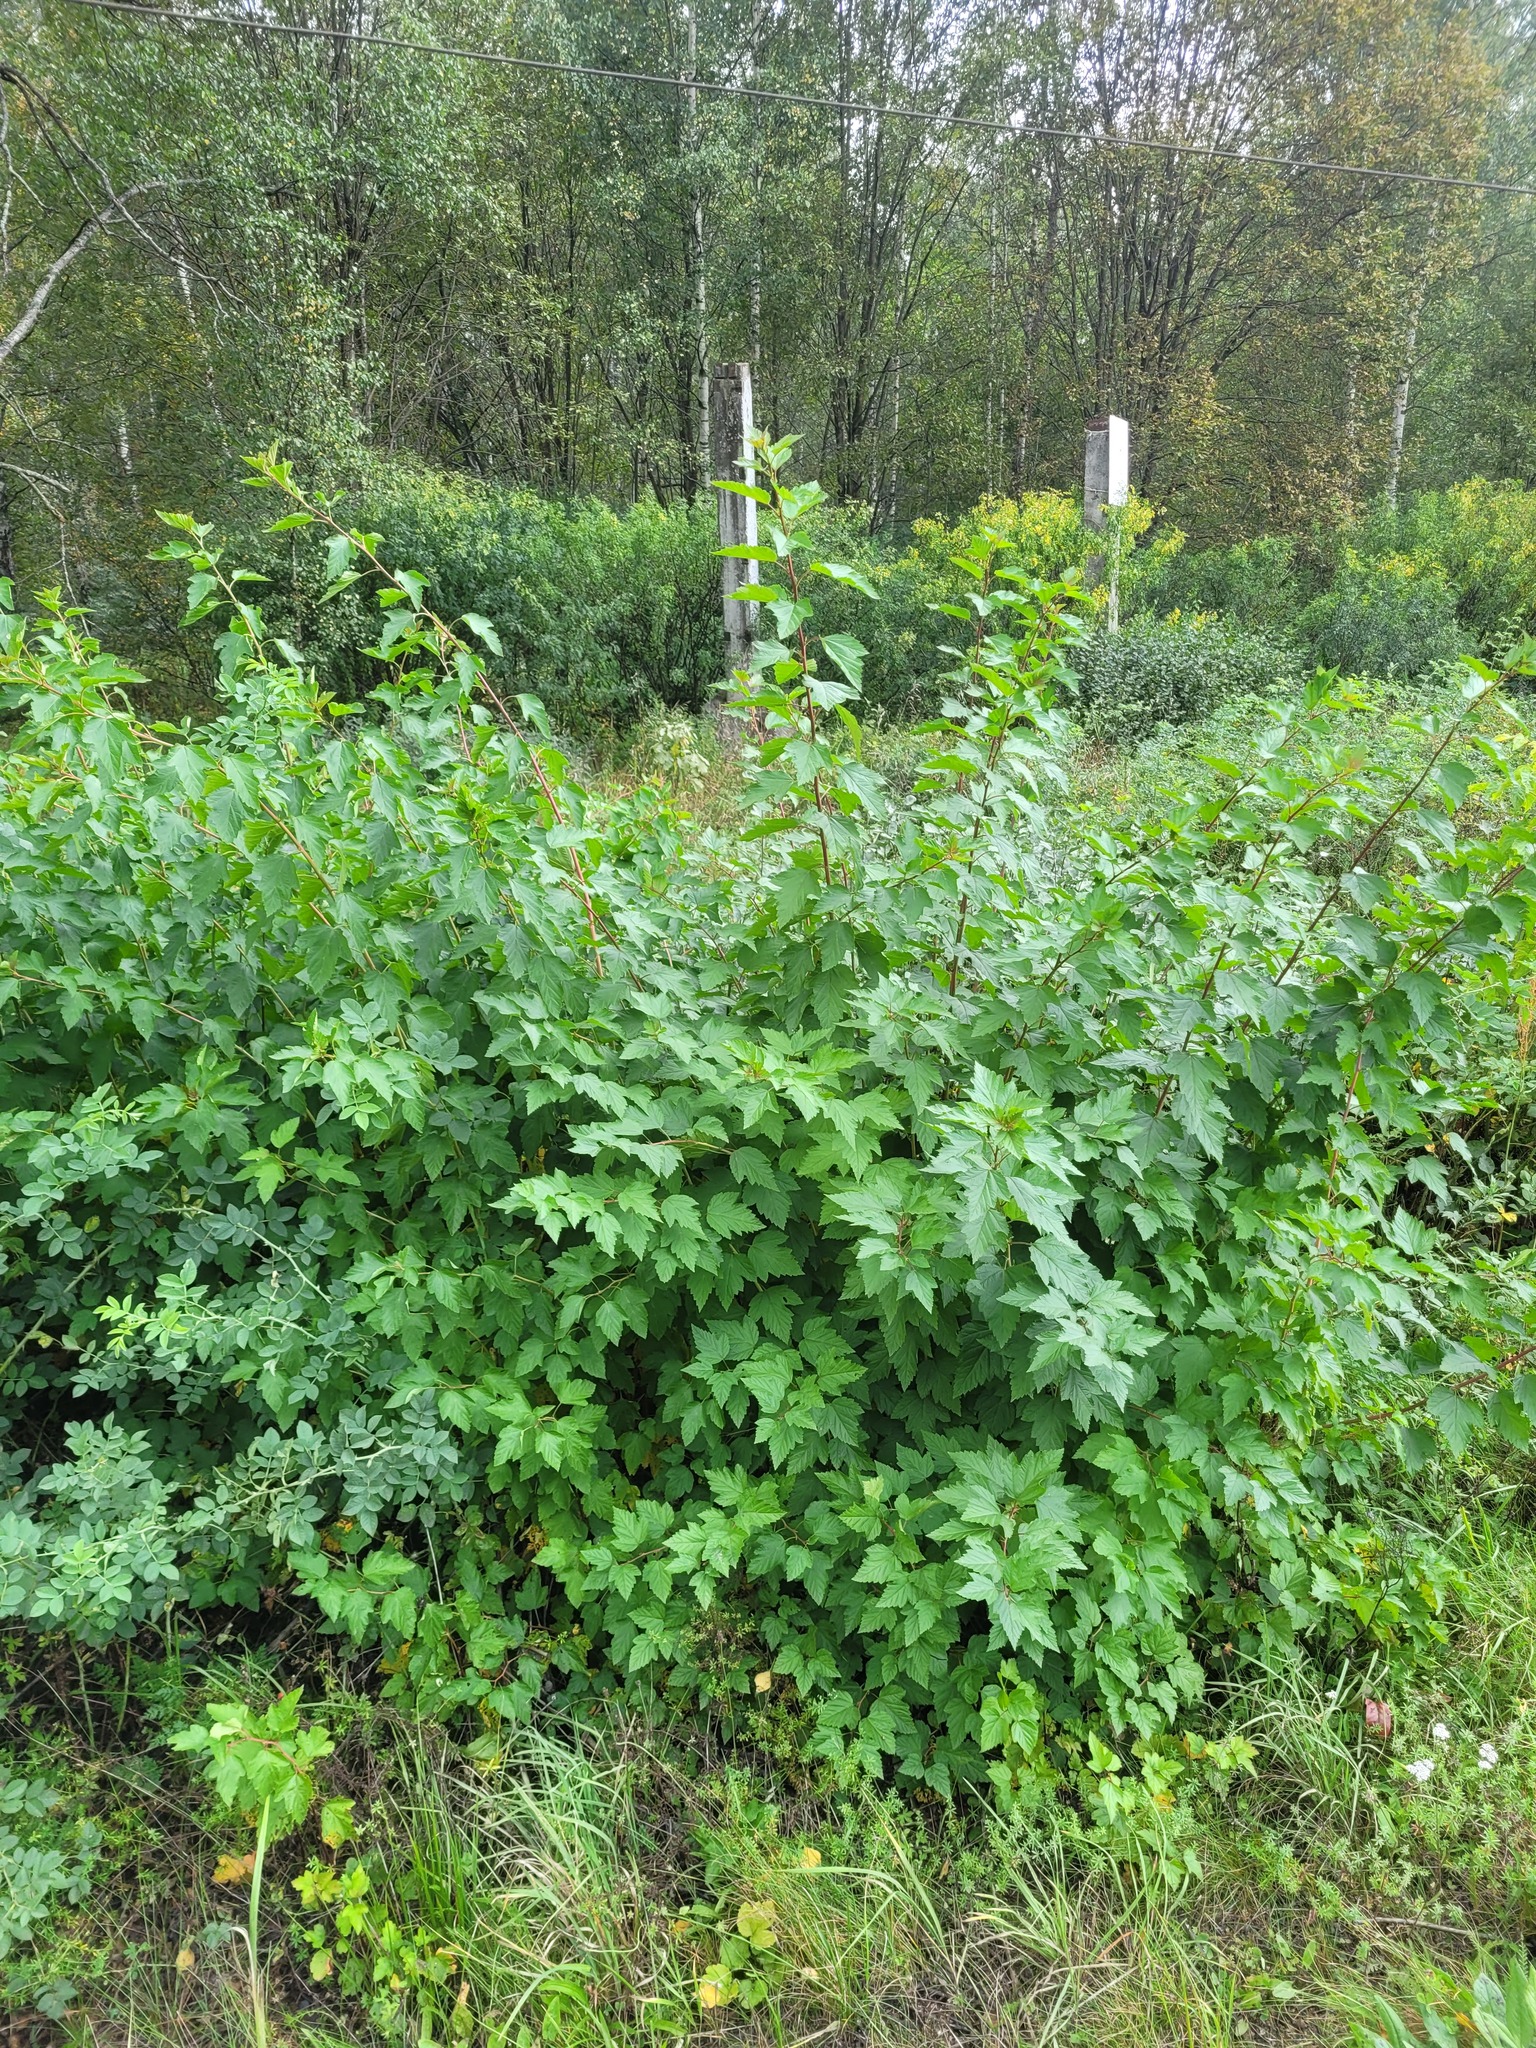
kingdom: Plantae
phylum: Tracheophyta
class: Magnoliopsida
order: Rosales
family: Rosaceae
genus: Physocarpus
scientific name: Physocarpus opulifolius
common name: Ninebark
